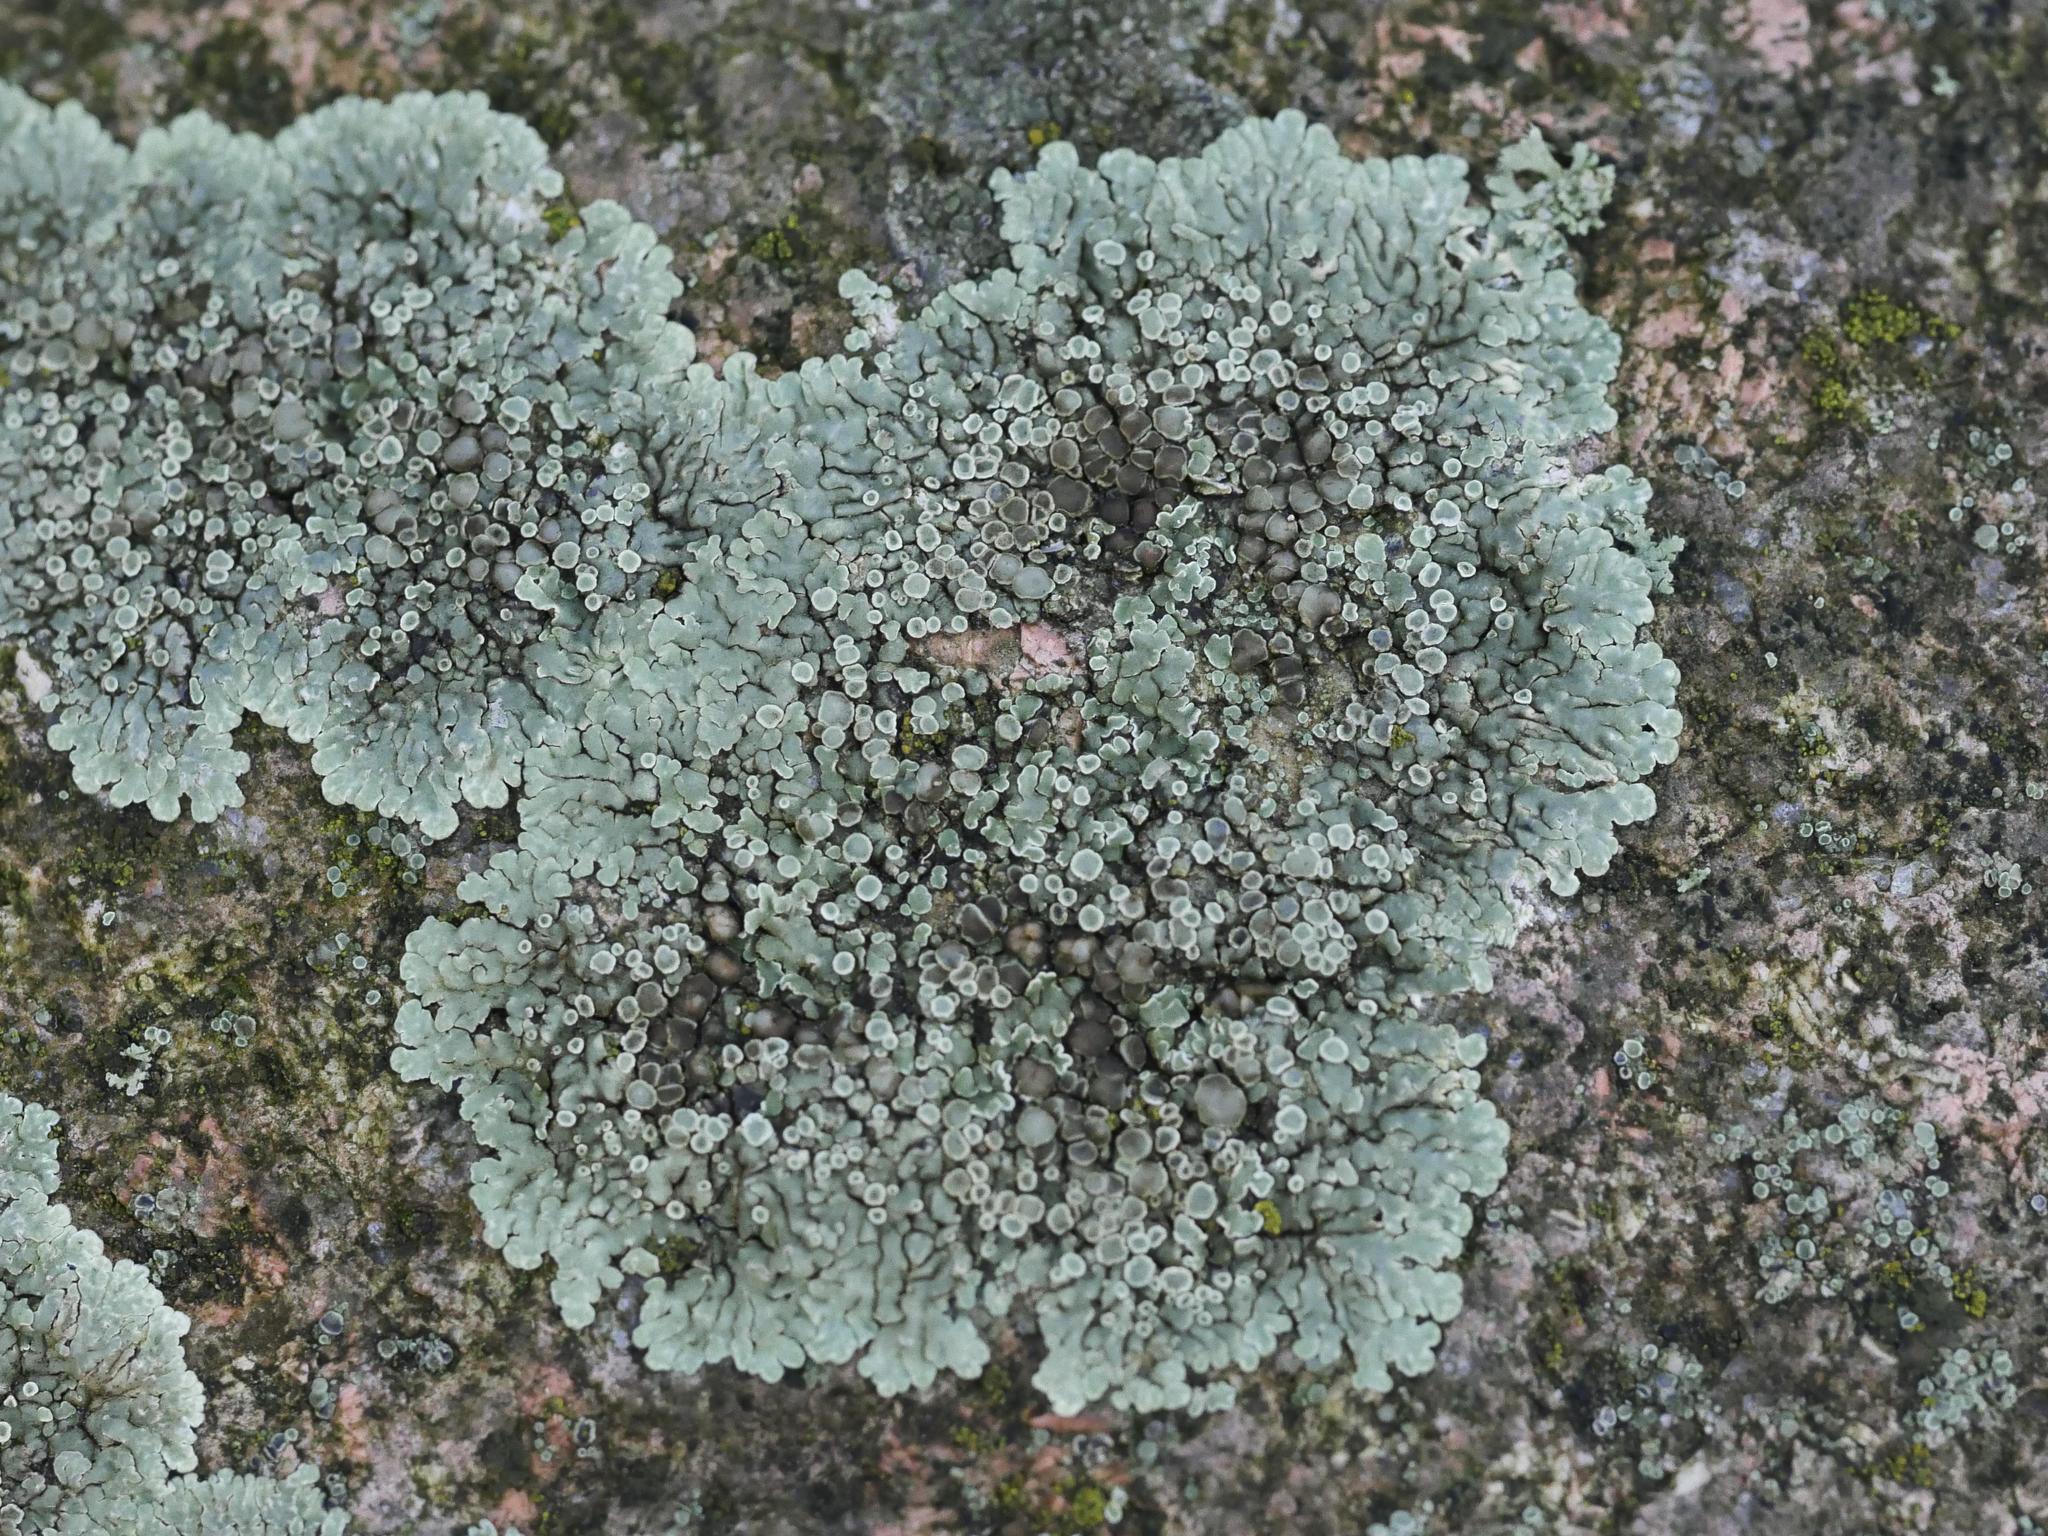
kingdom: Fungi
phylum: Ascomycota
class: Lecanoromycetes
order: Lecanorales
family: Lecanoraceae
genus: Protoparmeliopsis
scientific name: Protoparmeliopsis muralis
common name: Stonewall rim lichen
